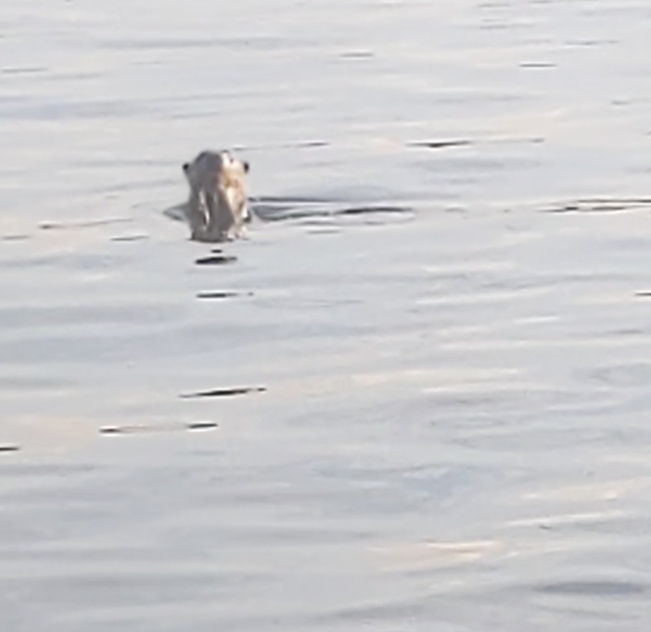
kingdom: Animalia
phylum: Chordata
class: Mammalia
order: Carnivora
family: Mustelidae
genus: Lutrogale
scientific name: Lutrogale perspicillata
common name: Smooth-coated otter
